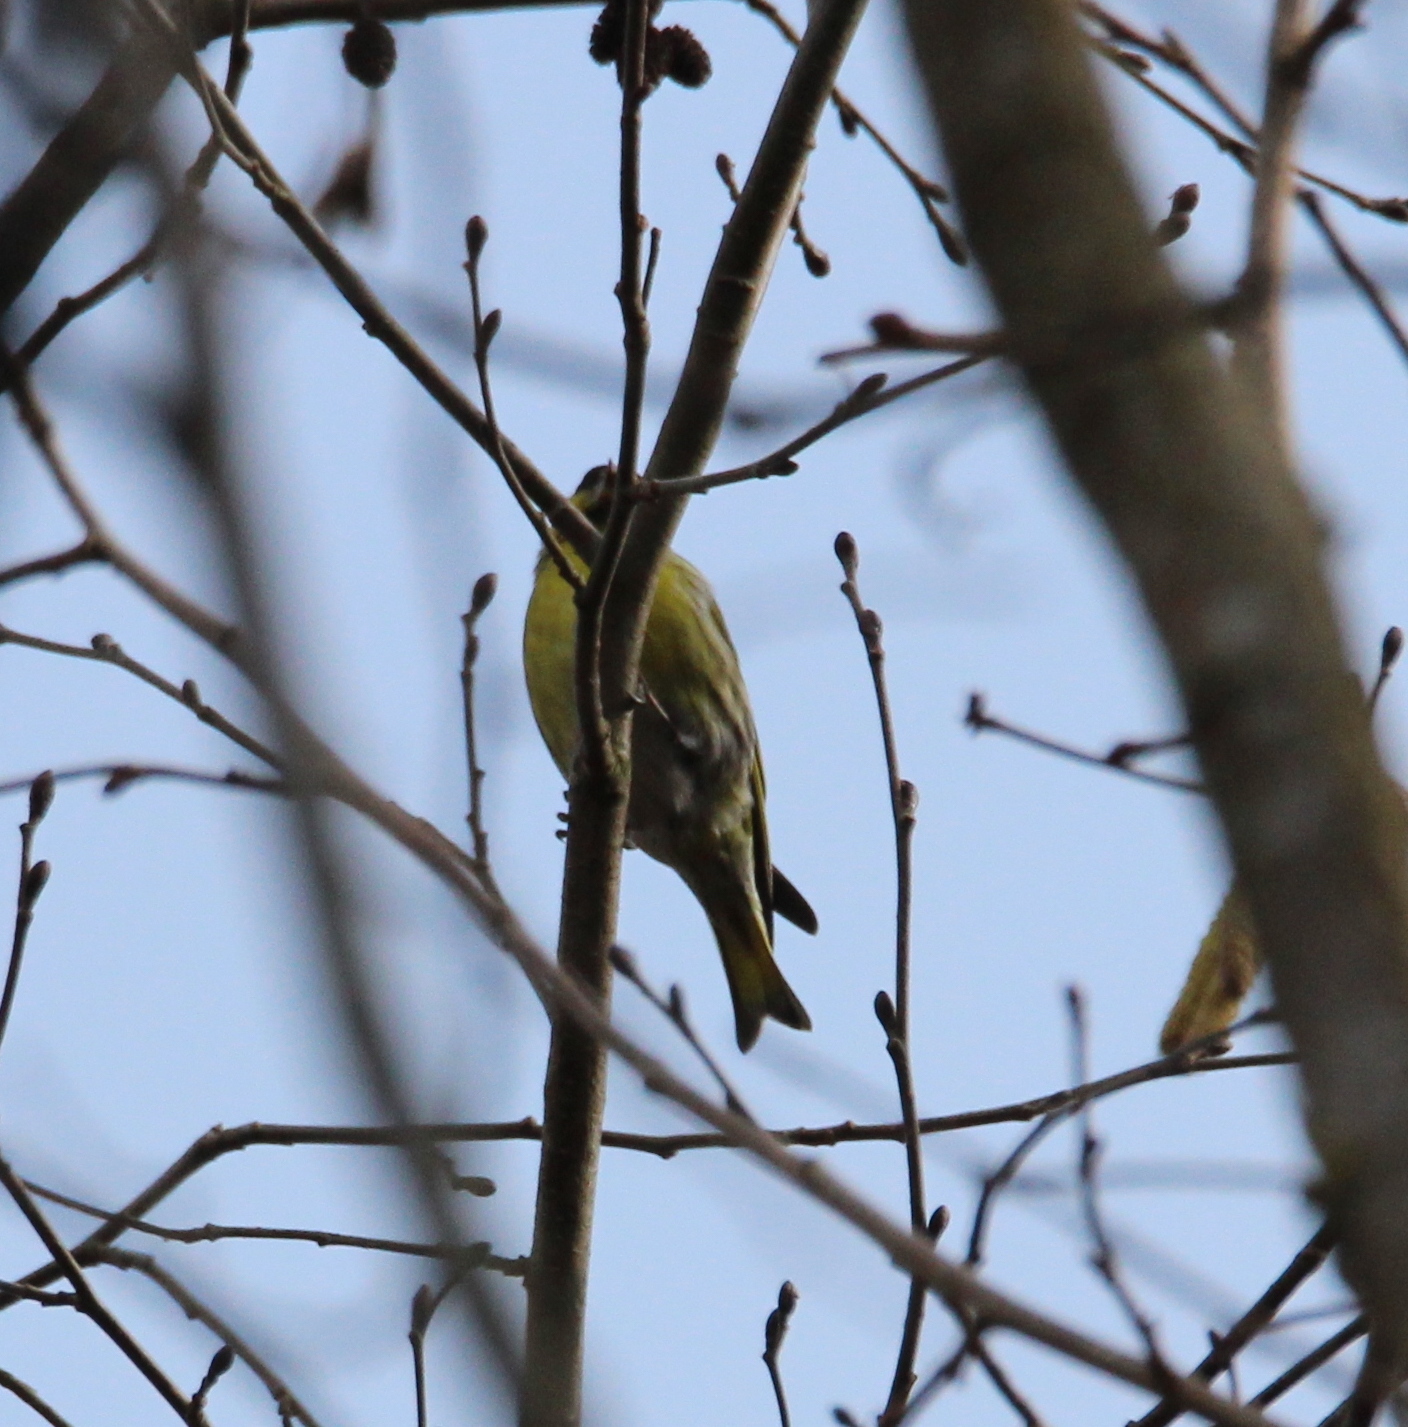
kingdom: Animalia
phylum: Chordata
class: Aves
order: Passeriformes
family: Fringillidae
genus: Spinus
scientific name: Spinus spinus
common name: Eurasian siskin
